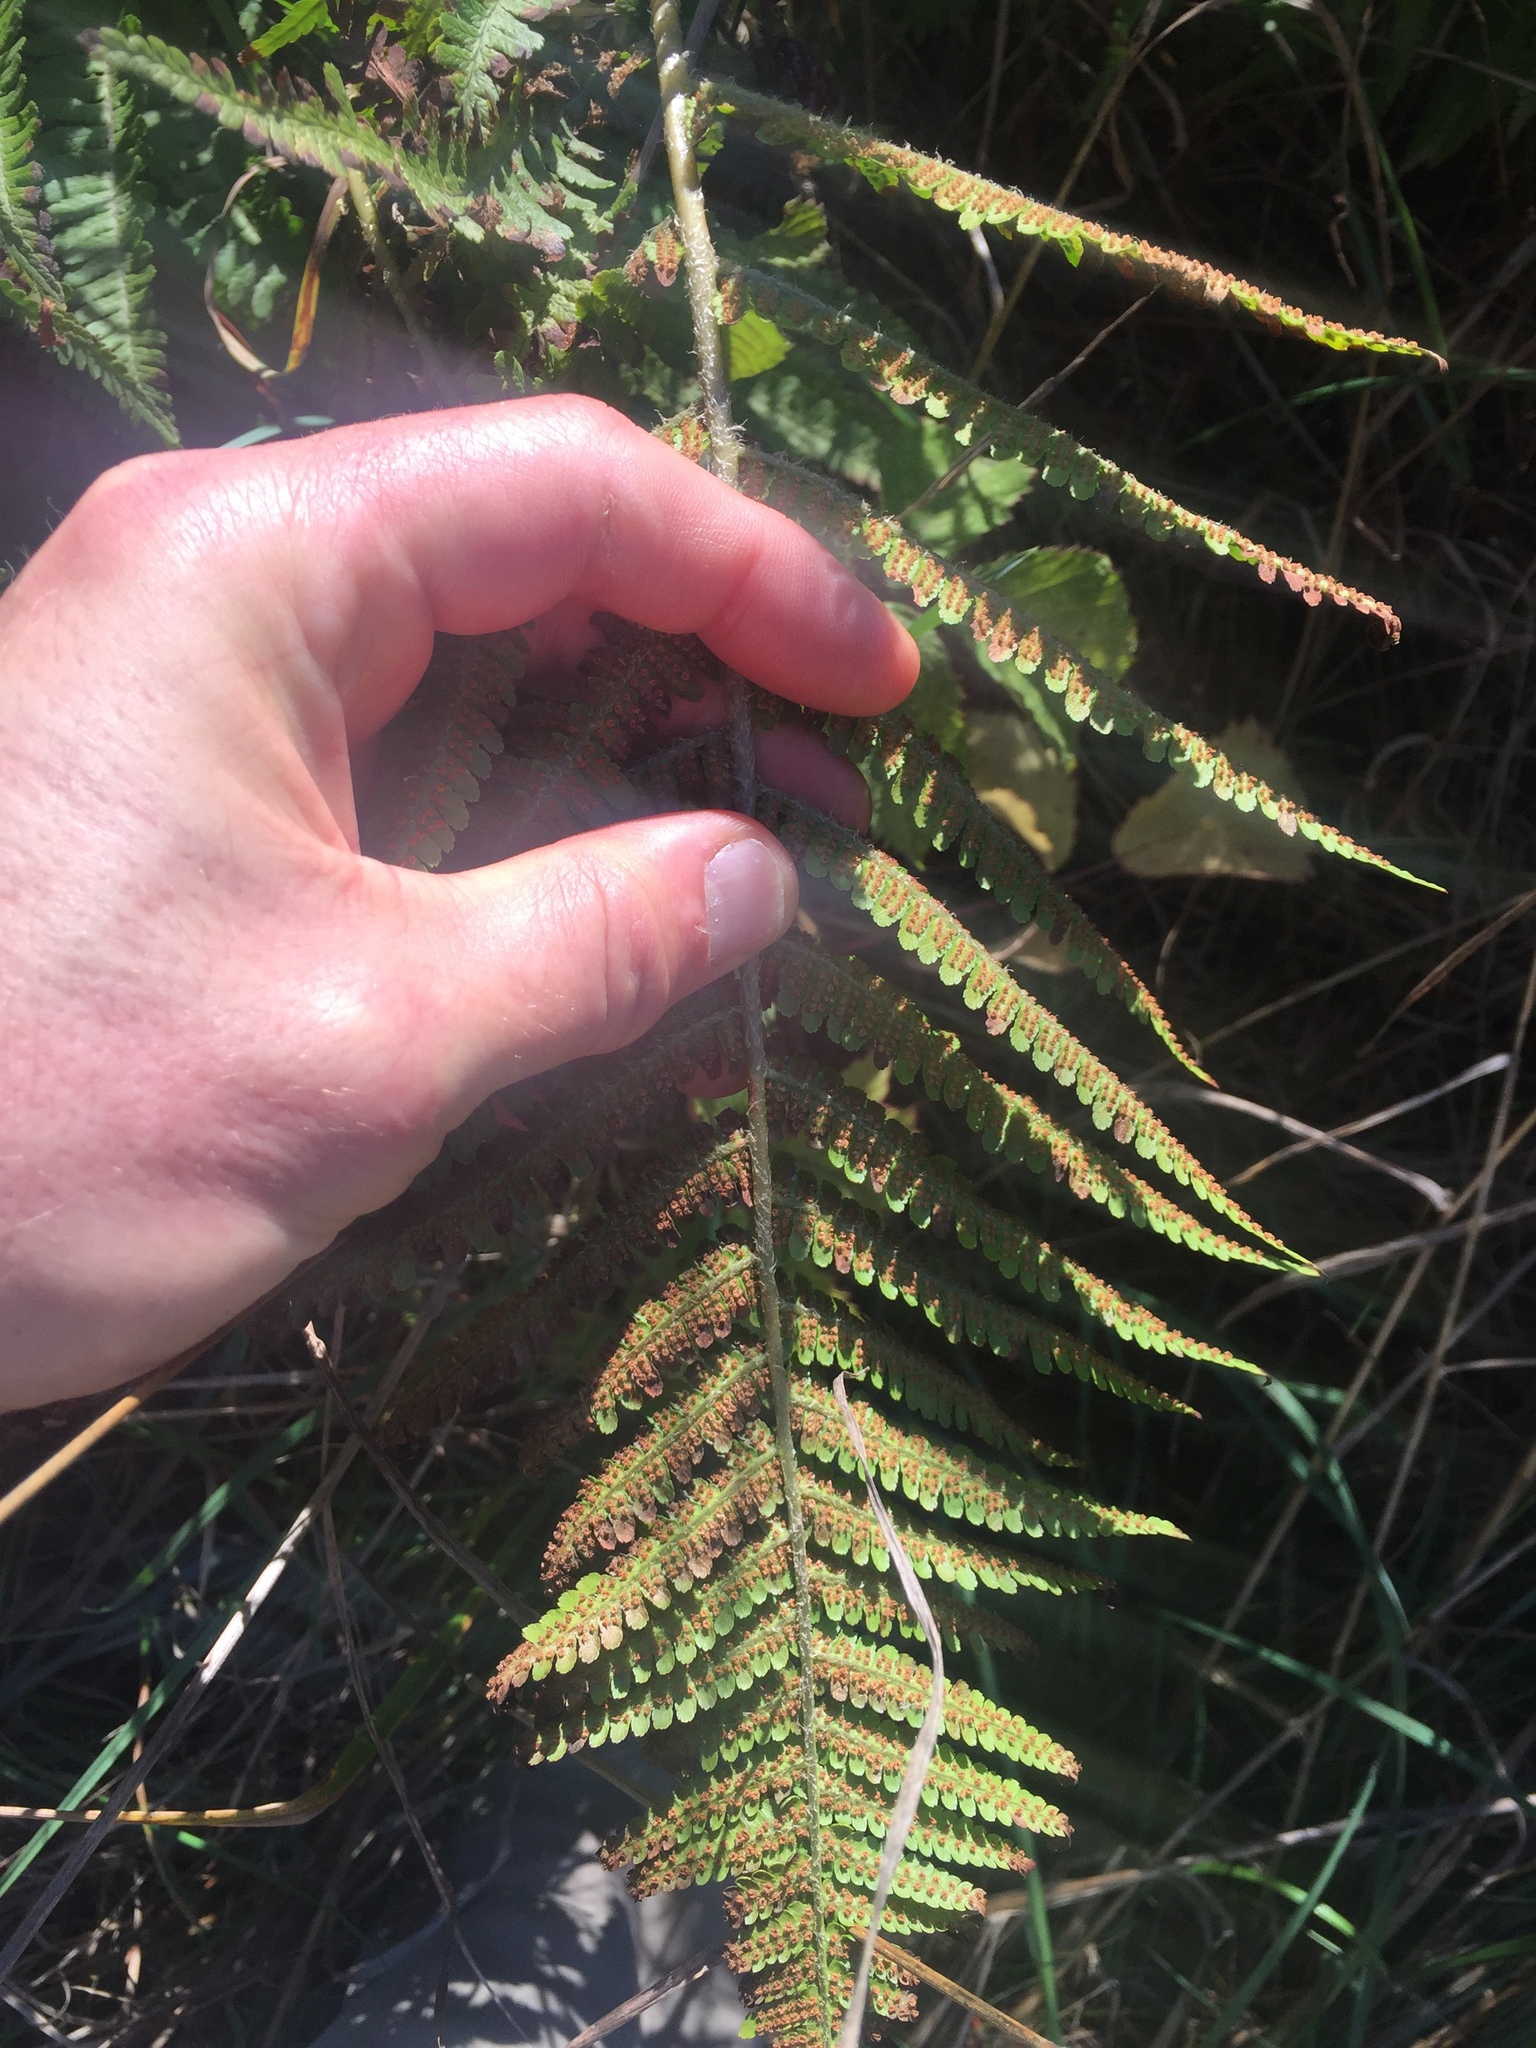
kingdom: Plantae
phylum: Tracheophyta
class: Polypodiopsida
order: Polypodiales
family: Dryopteridaceae
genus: Dryopteris
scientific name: Dryopteris filix-mas
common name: Male fern
